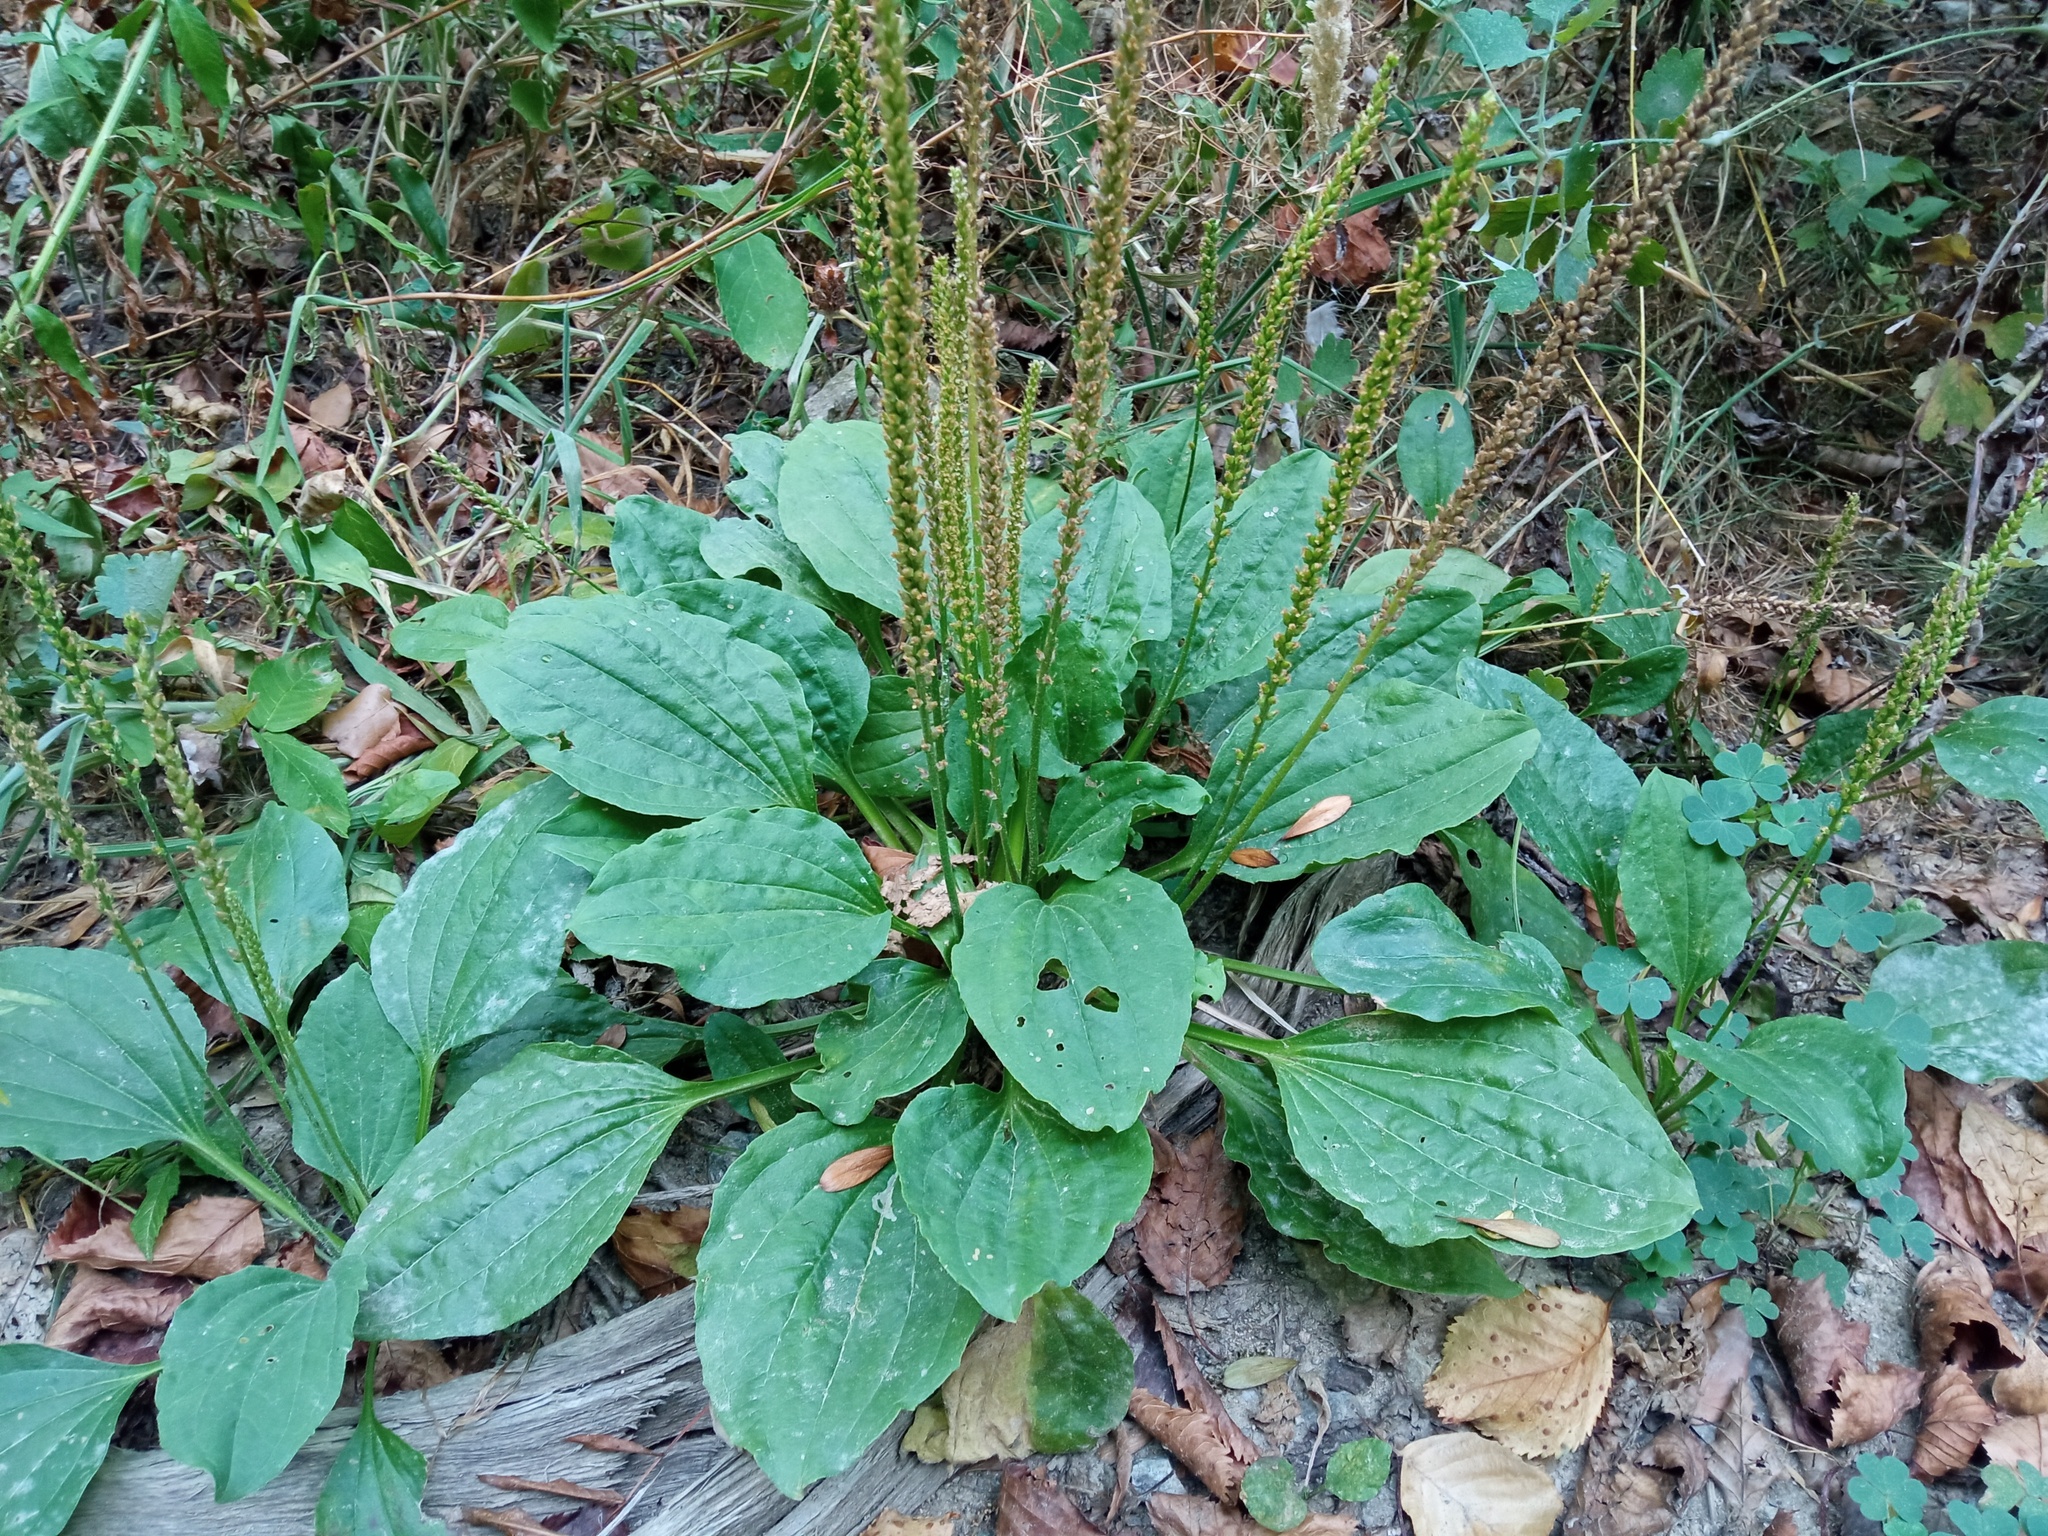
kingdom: Plantae
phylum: Tracheophyta
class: Magnoliopsida
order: Lamiales
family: Plantaginaceae
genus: Plantago
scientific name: Plantago major
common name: Common plantain
